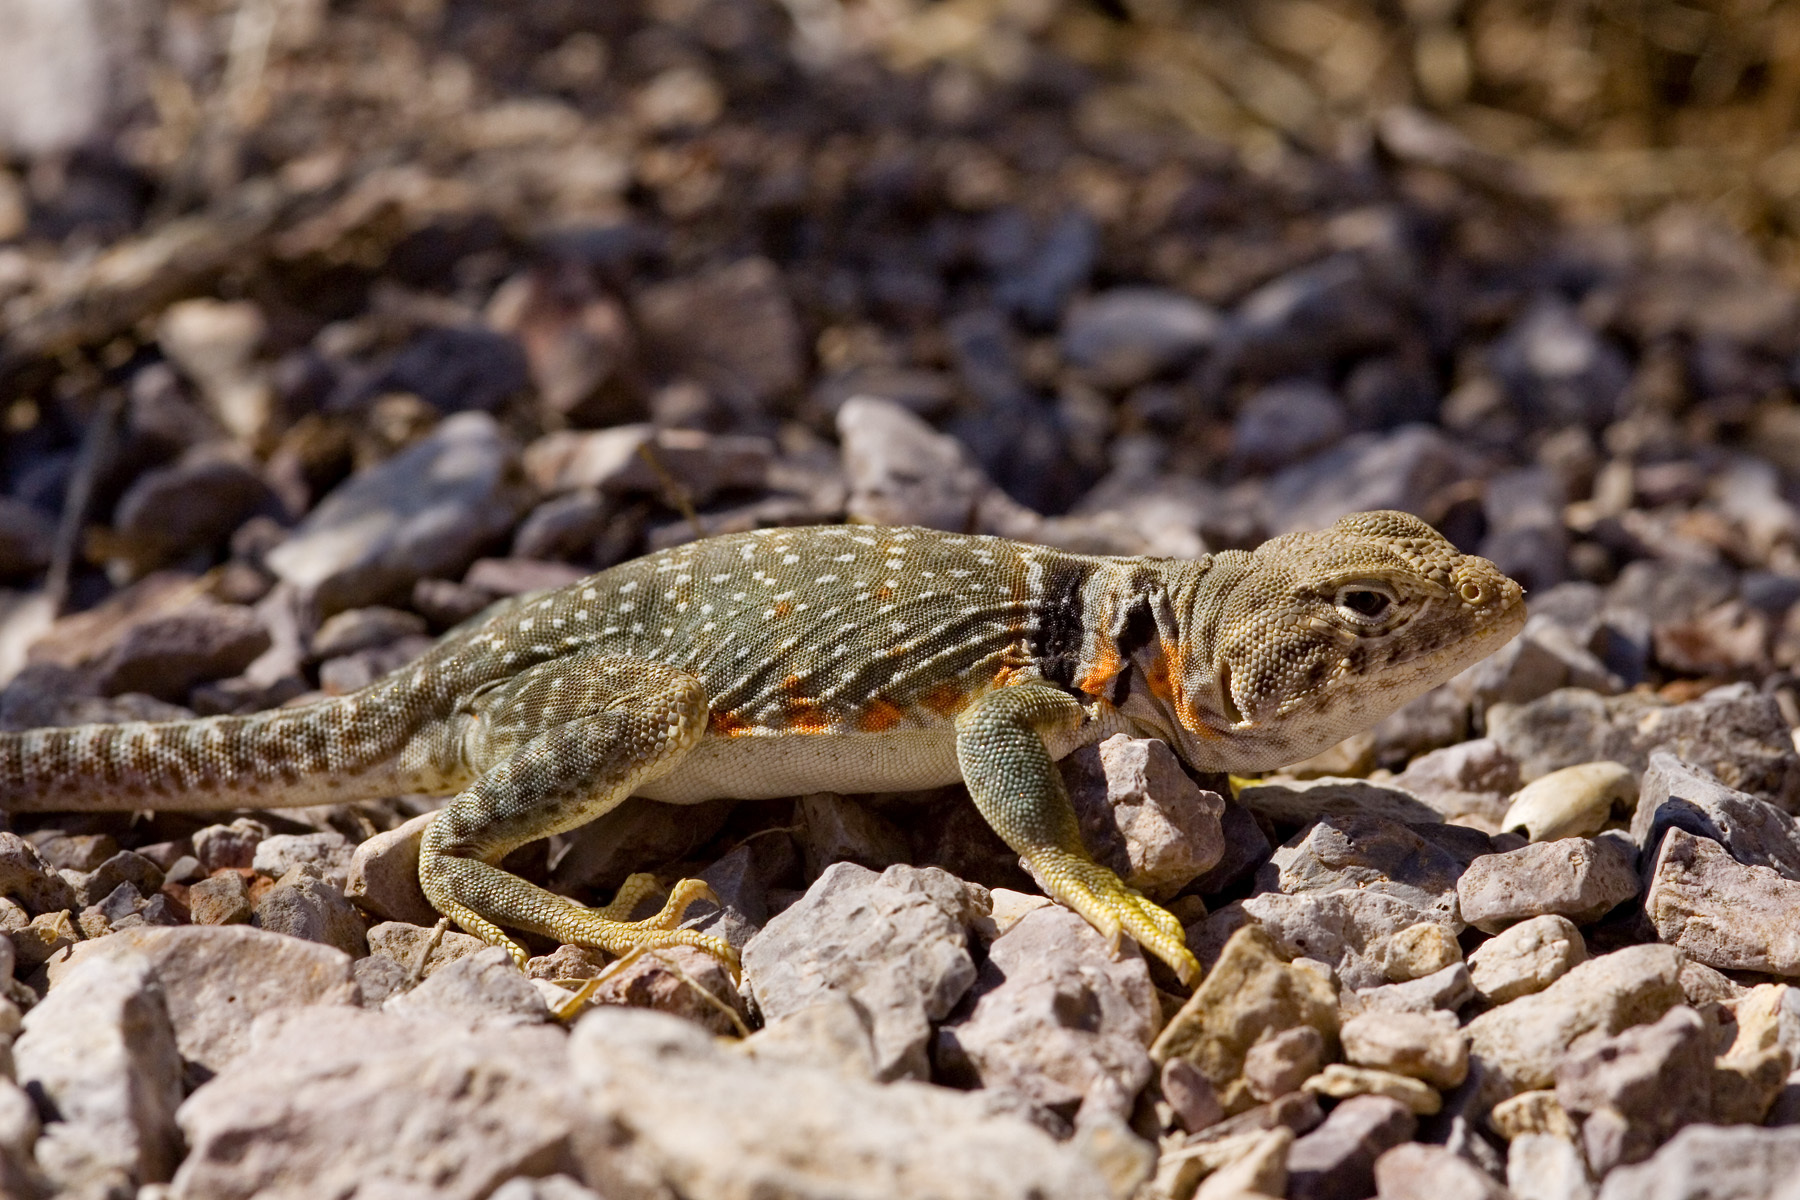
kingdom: Animalia
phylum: Chordata
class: Squamata
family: Crotaphytidae
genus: Crotaphytus
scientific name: Crotaphytus collaris
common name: Collared lizard
